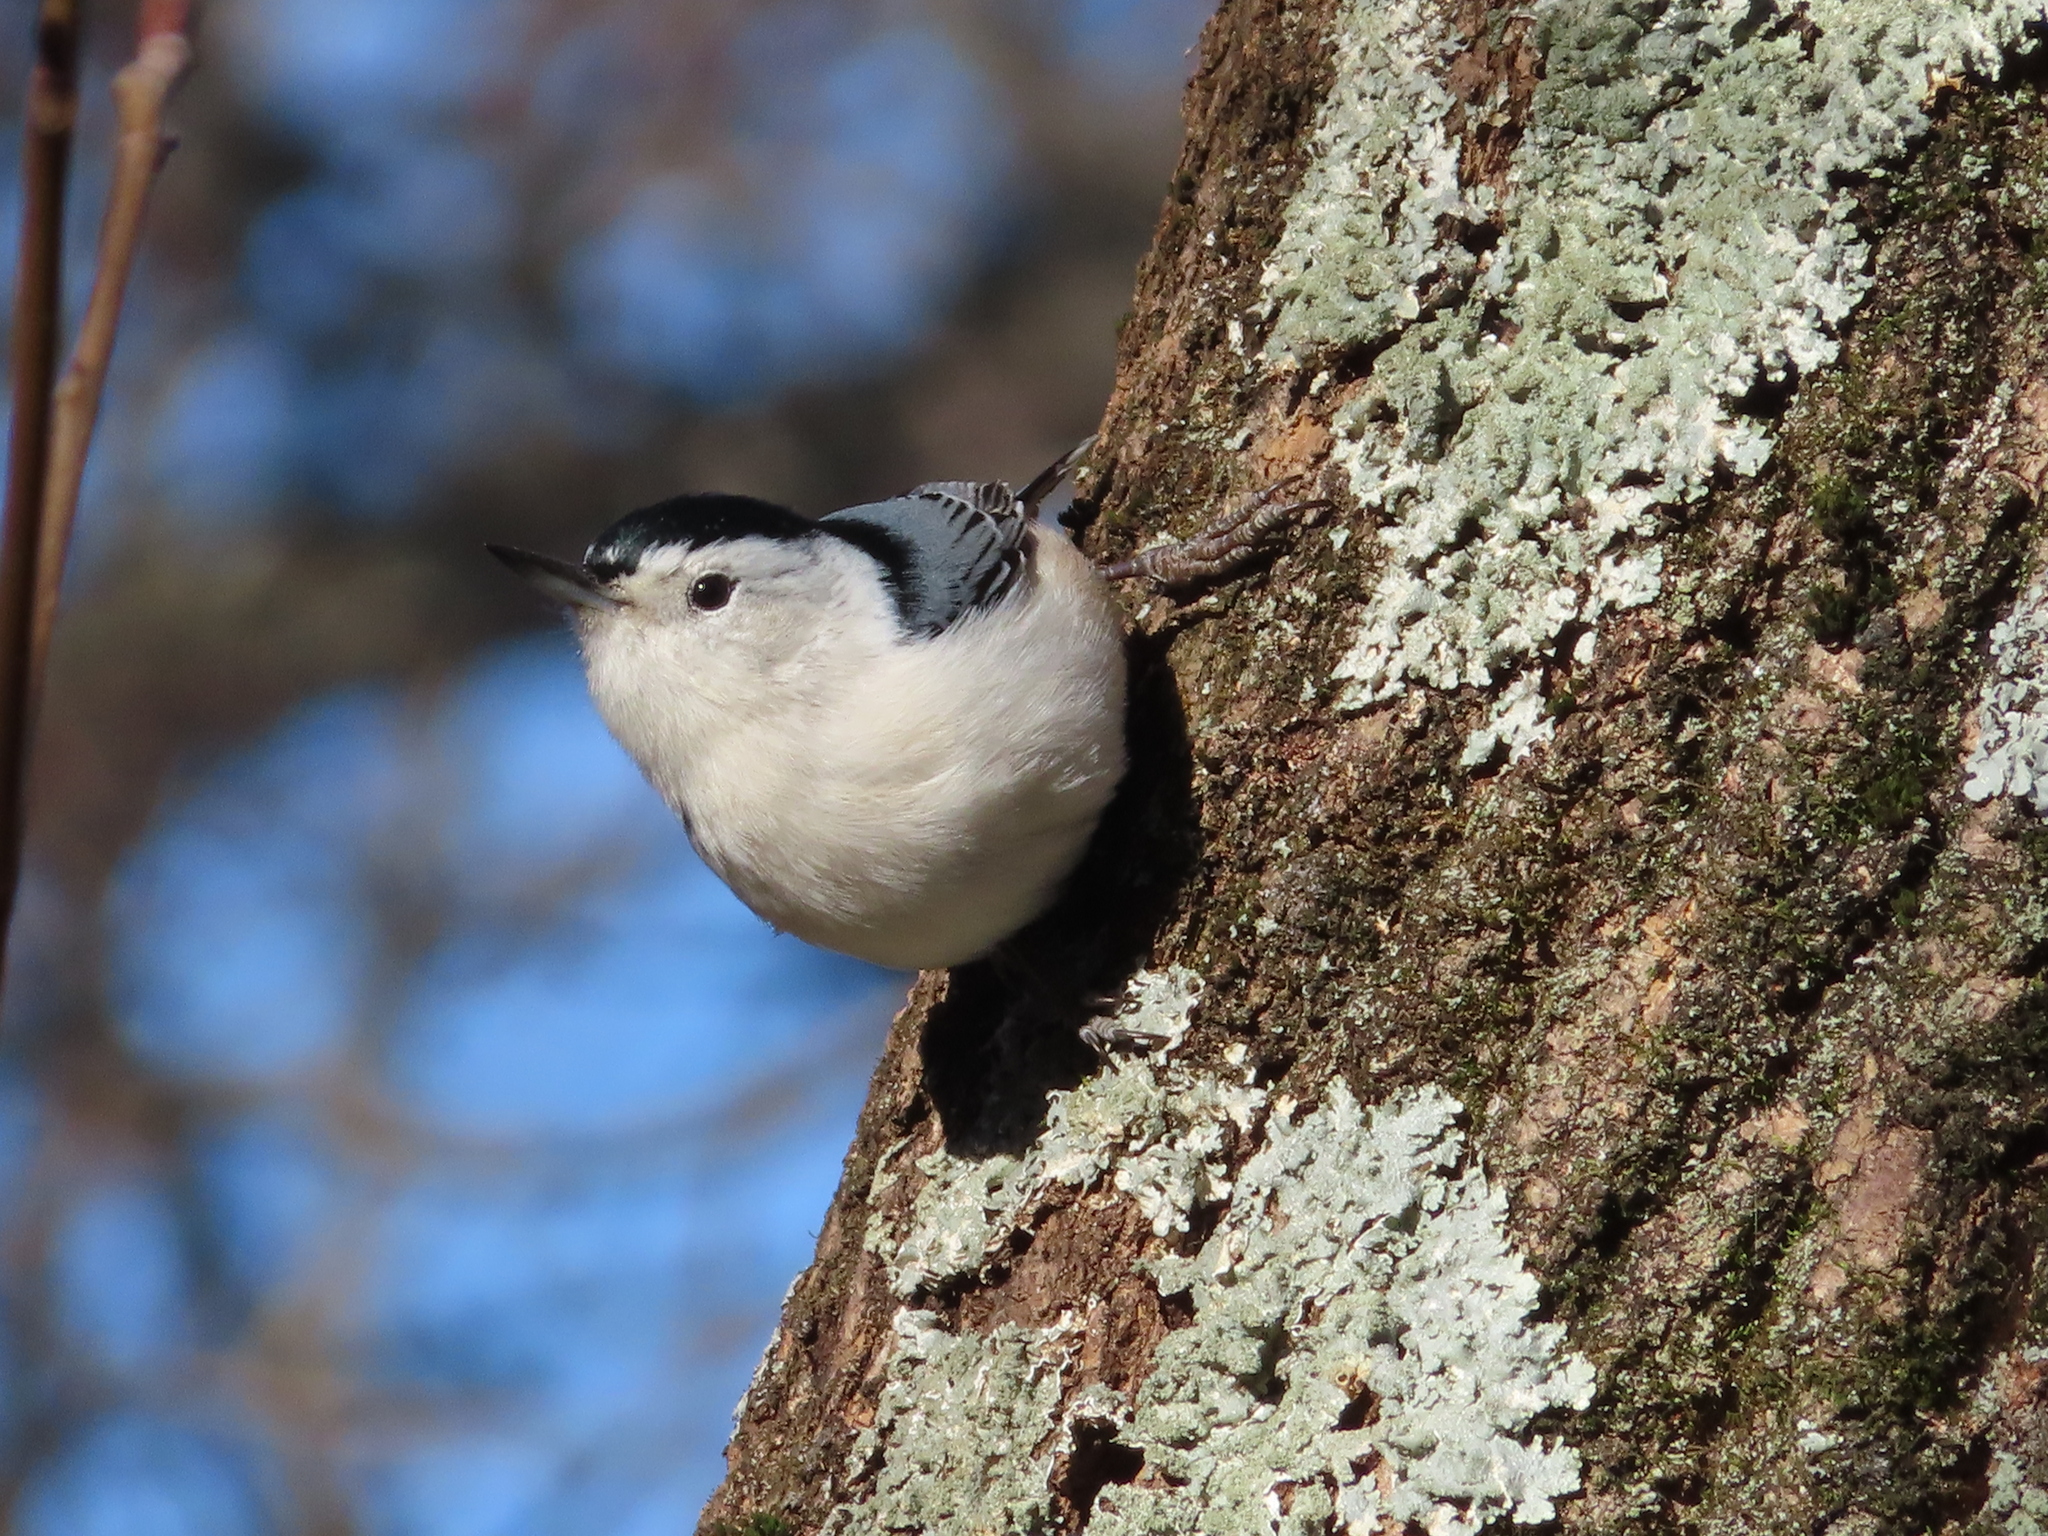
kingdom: Animalia
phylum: Chordata
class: Aves
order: Passeriformes
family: Sittidae
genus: Sitta
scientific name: Sitta carolinensis
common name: White-breasted nuthatch
